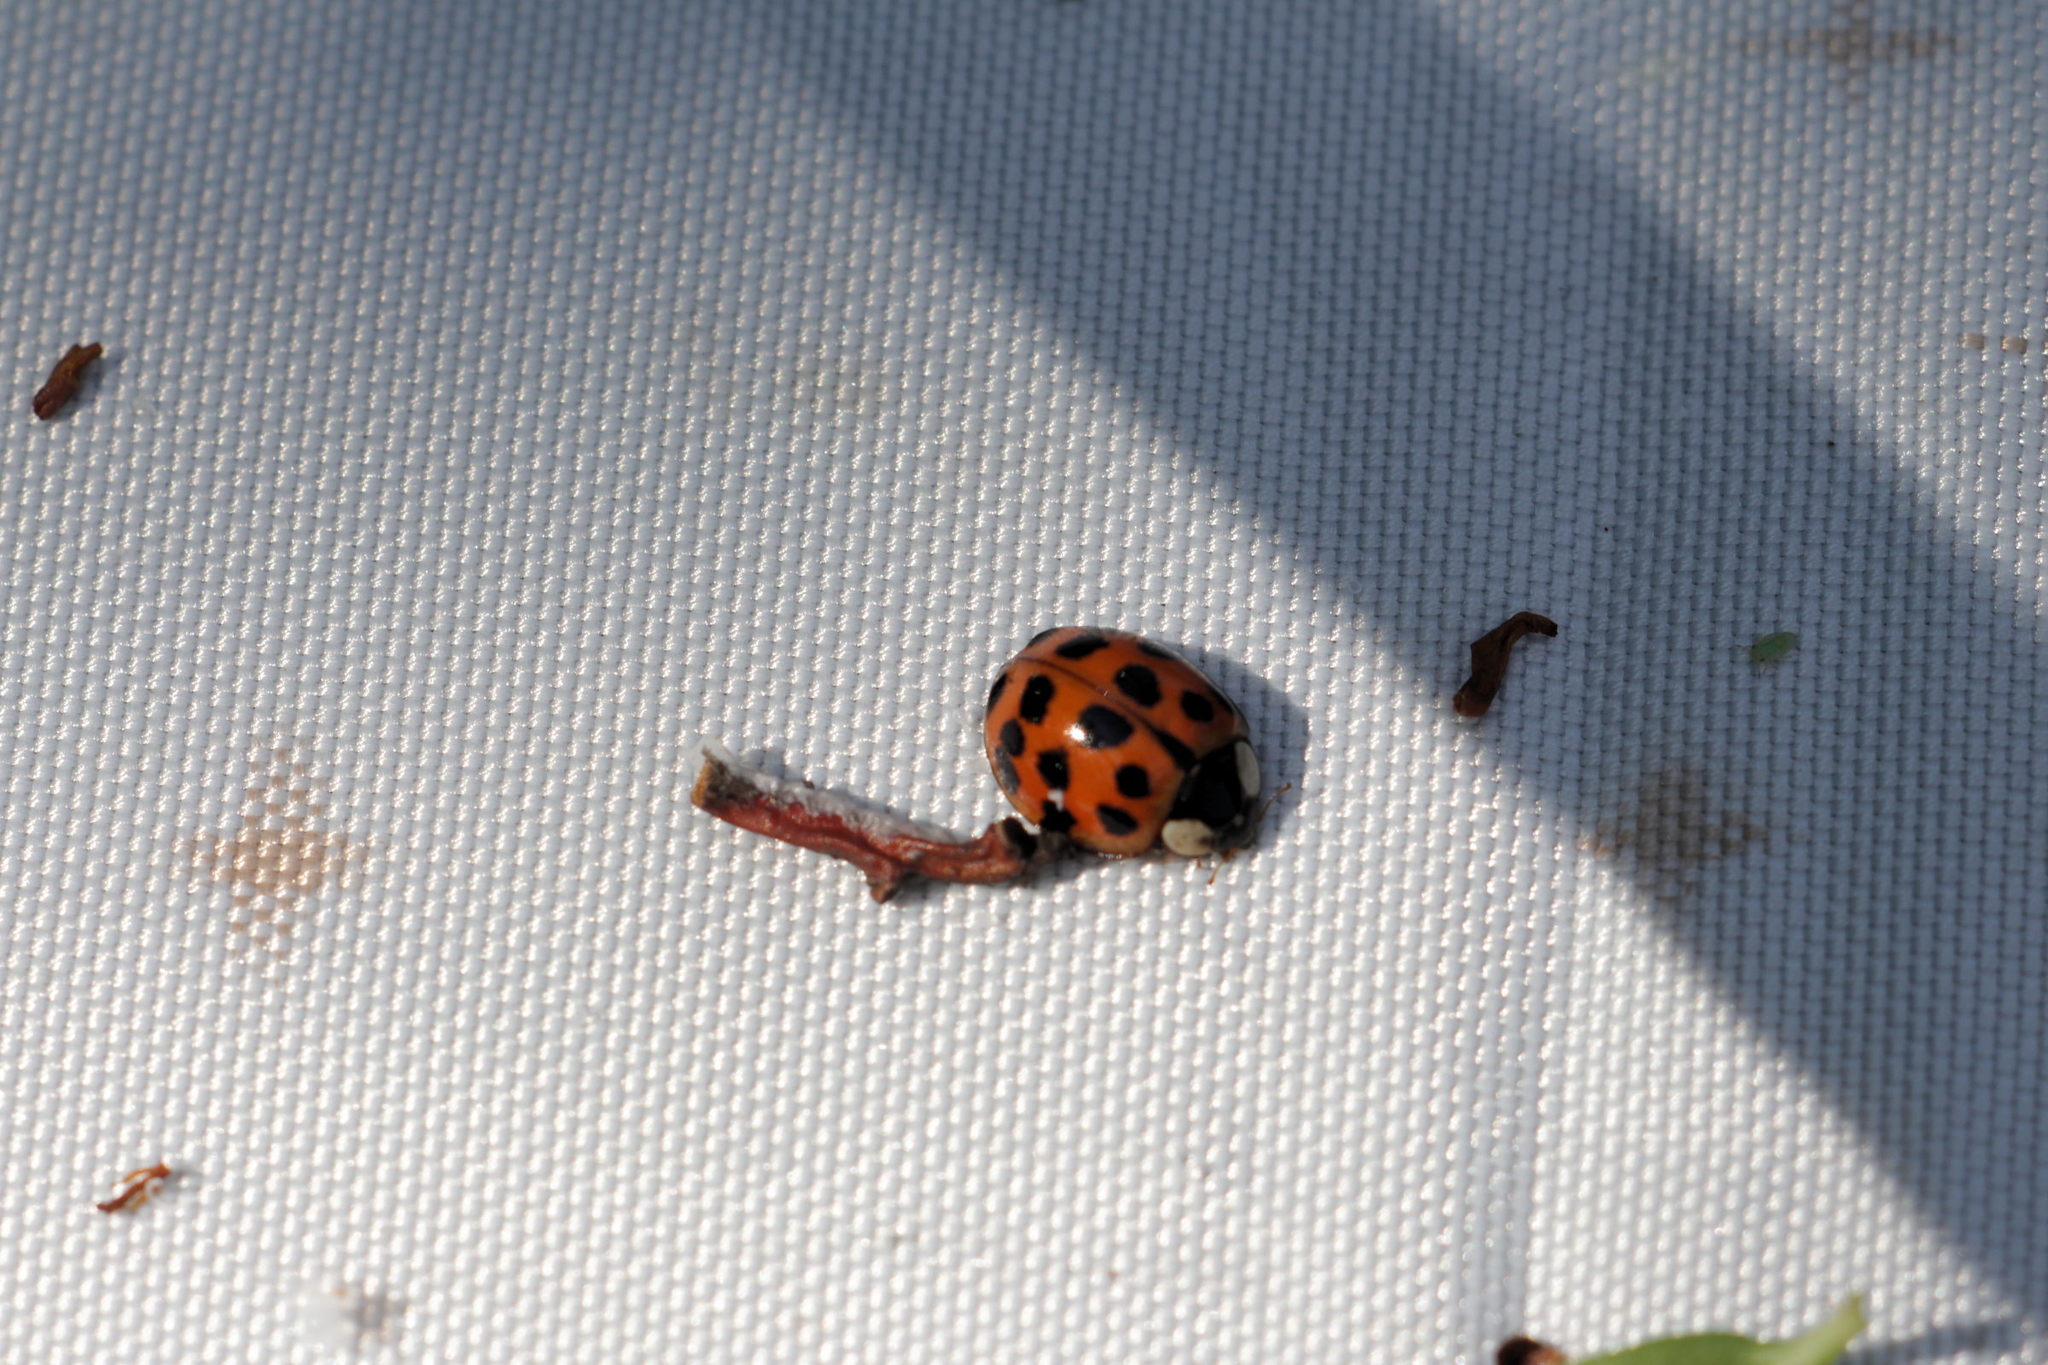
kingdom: Animalia
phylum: Arthropoda
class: Insecta
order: Coleoptera
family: Coccinellidae
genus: Harmonia
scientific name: Harmonia axyridis
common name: Harlequin ladybird
